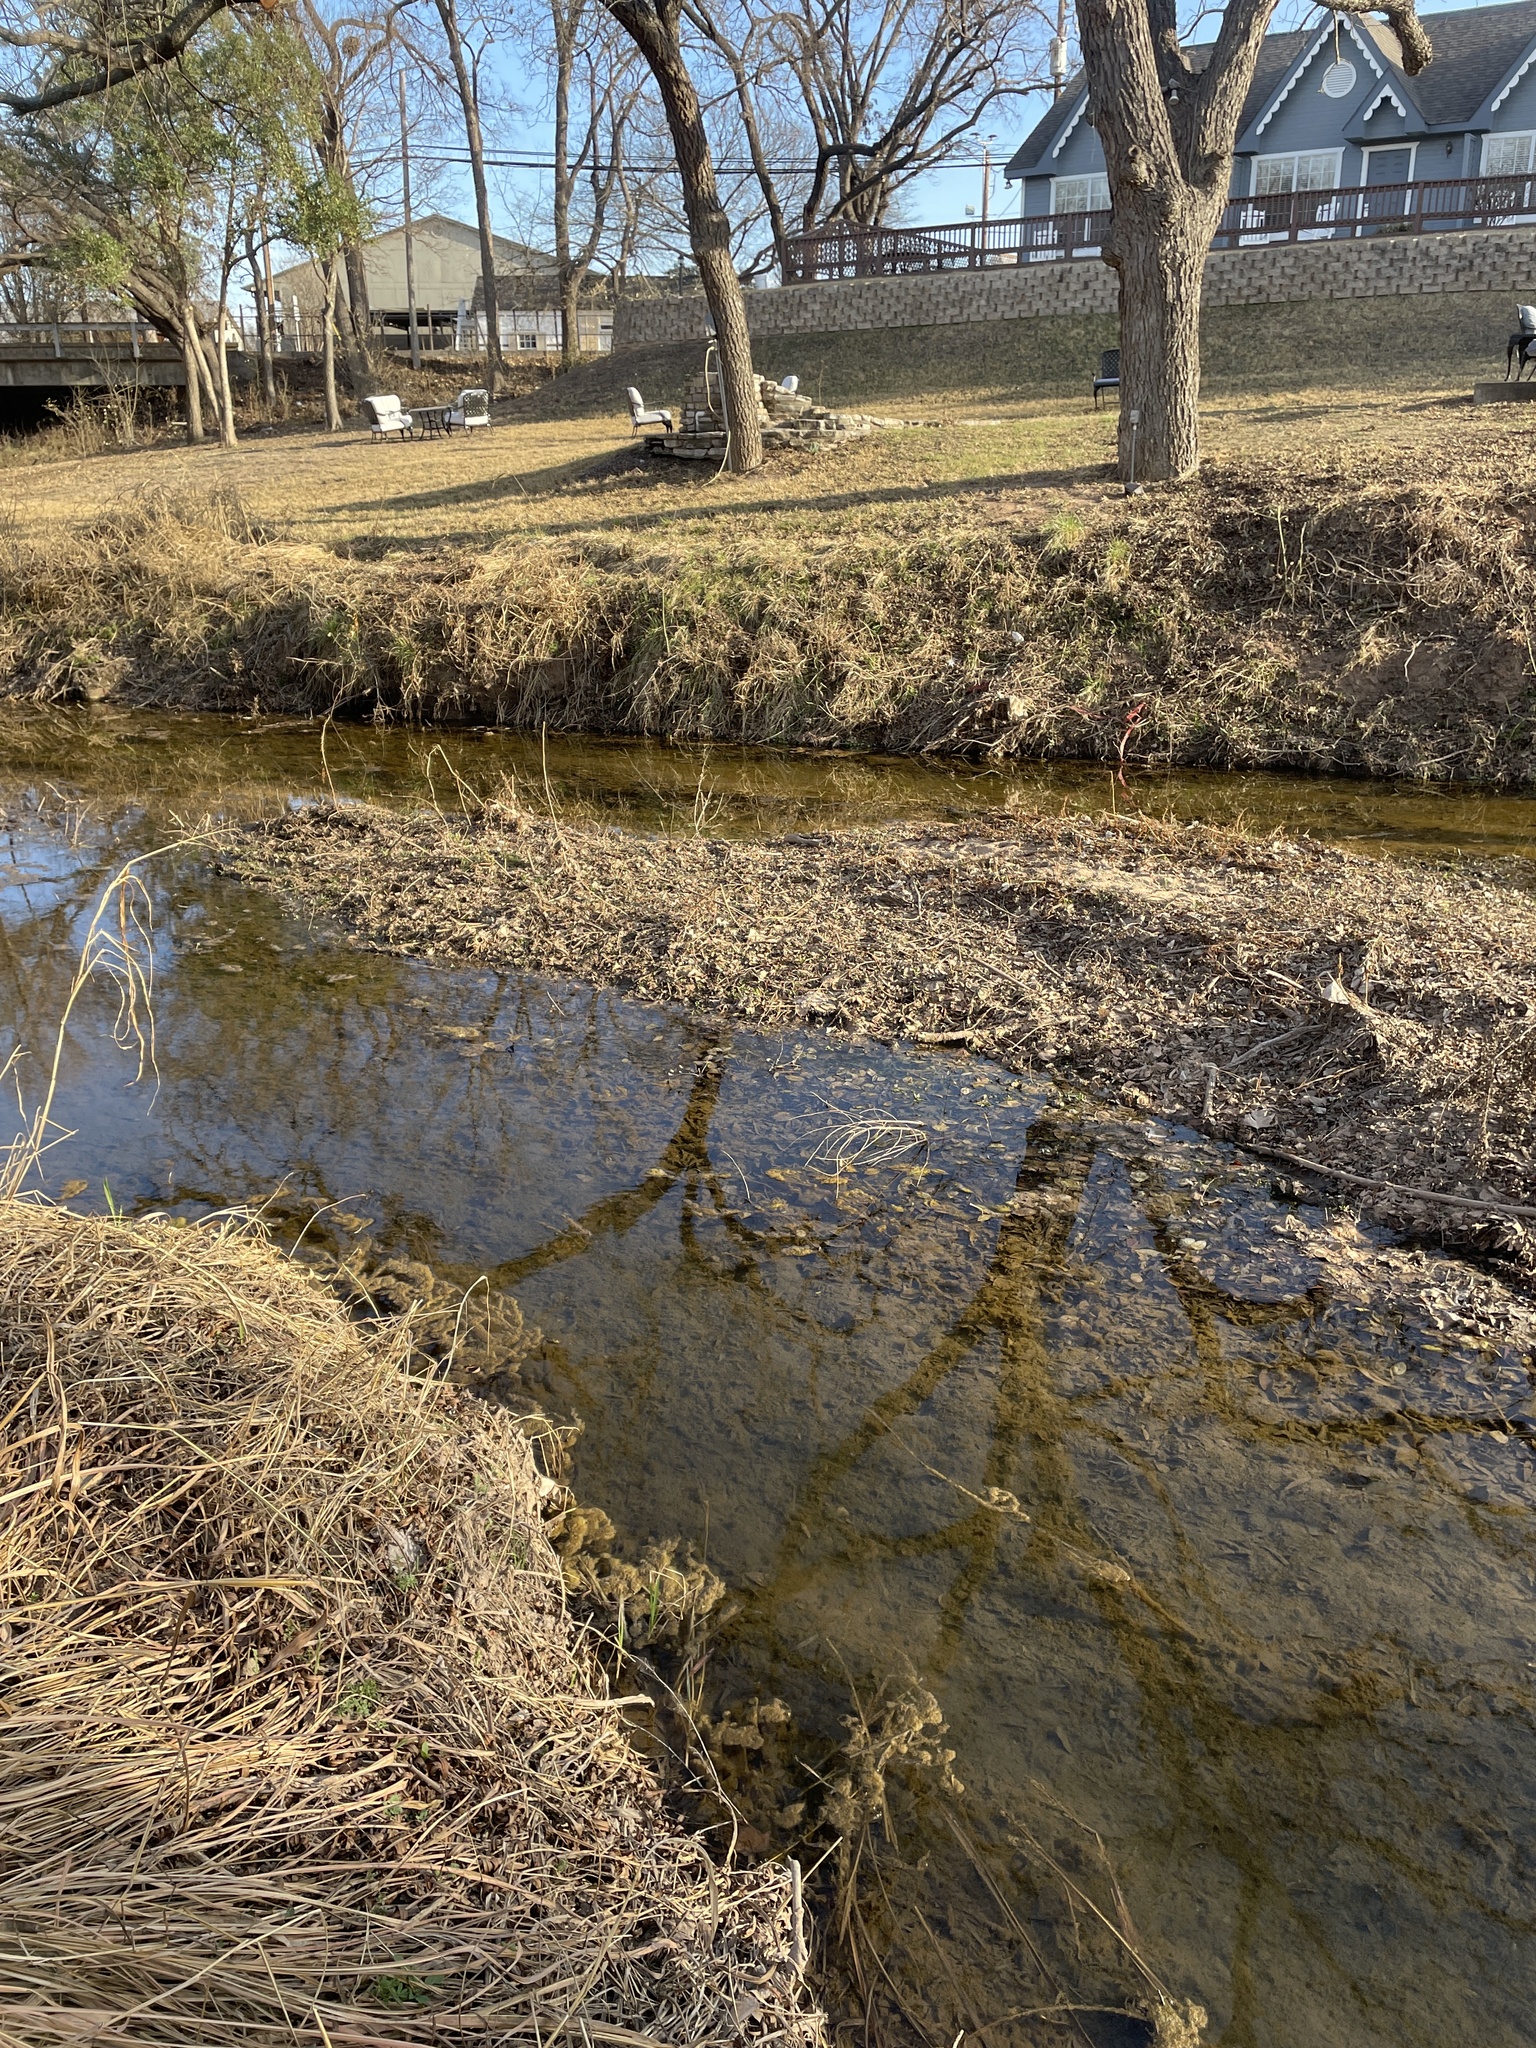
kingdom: Animalia
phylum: Chordata
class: Amphibia
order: Anura
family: Ranidae
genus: Lithobates
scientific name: Lithobates berlandieri
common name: Rio grande leopard frog
